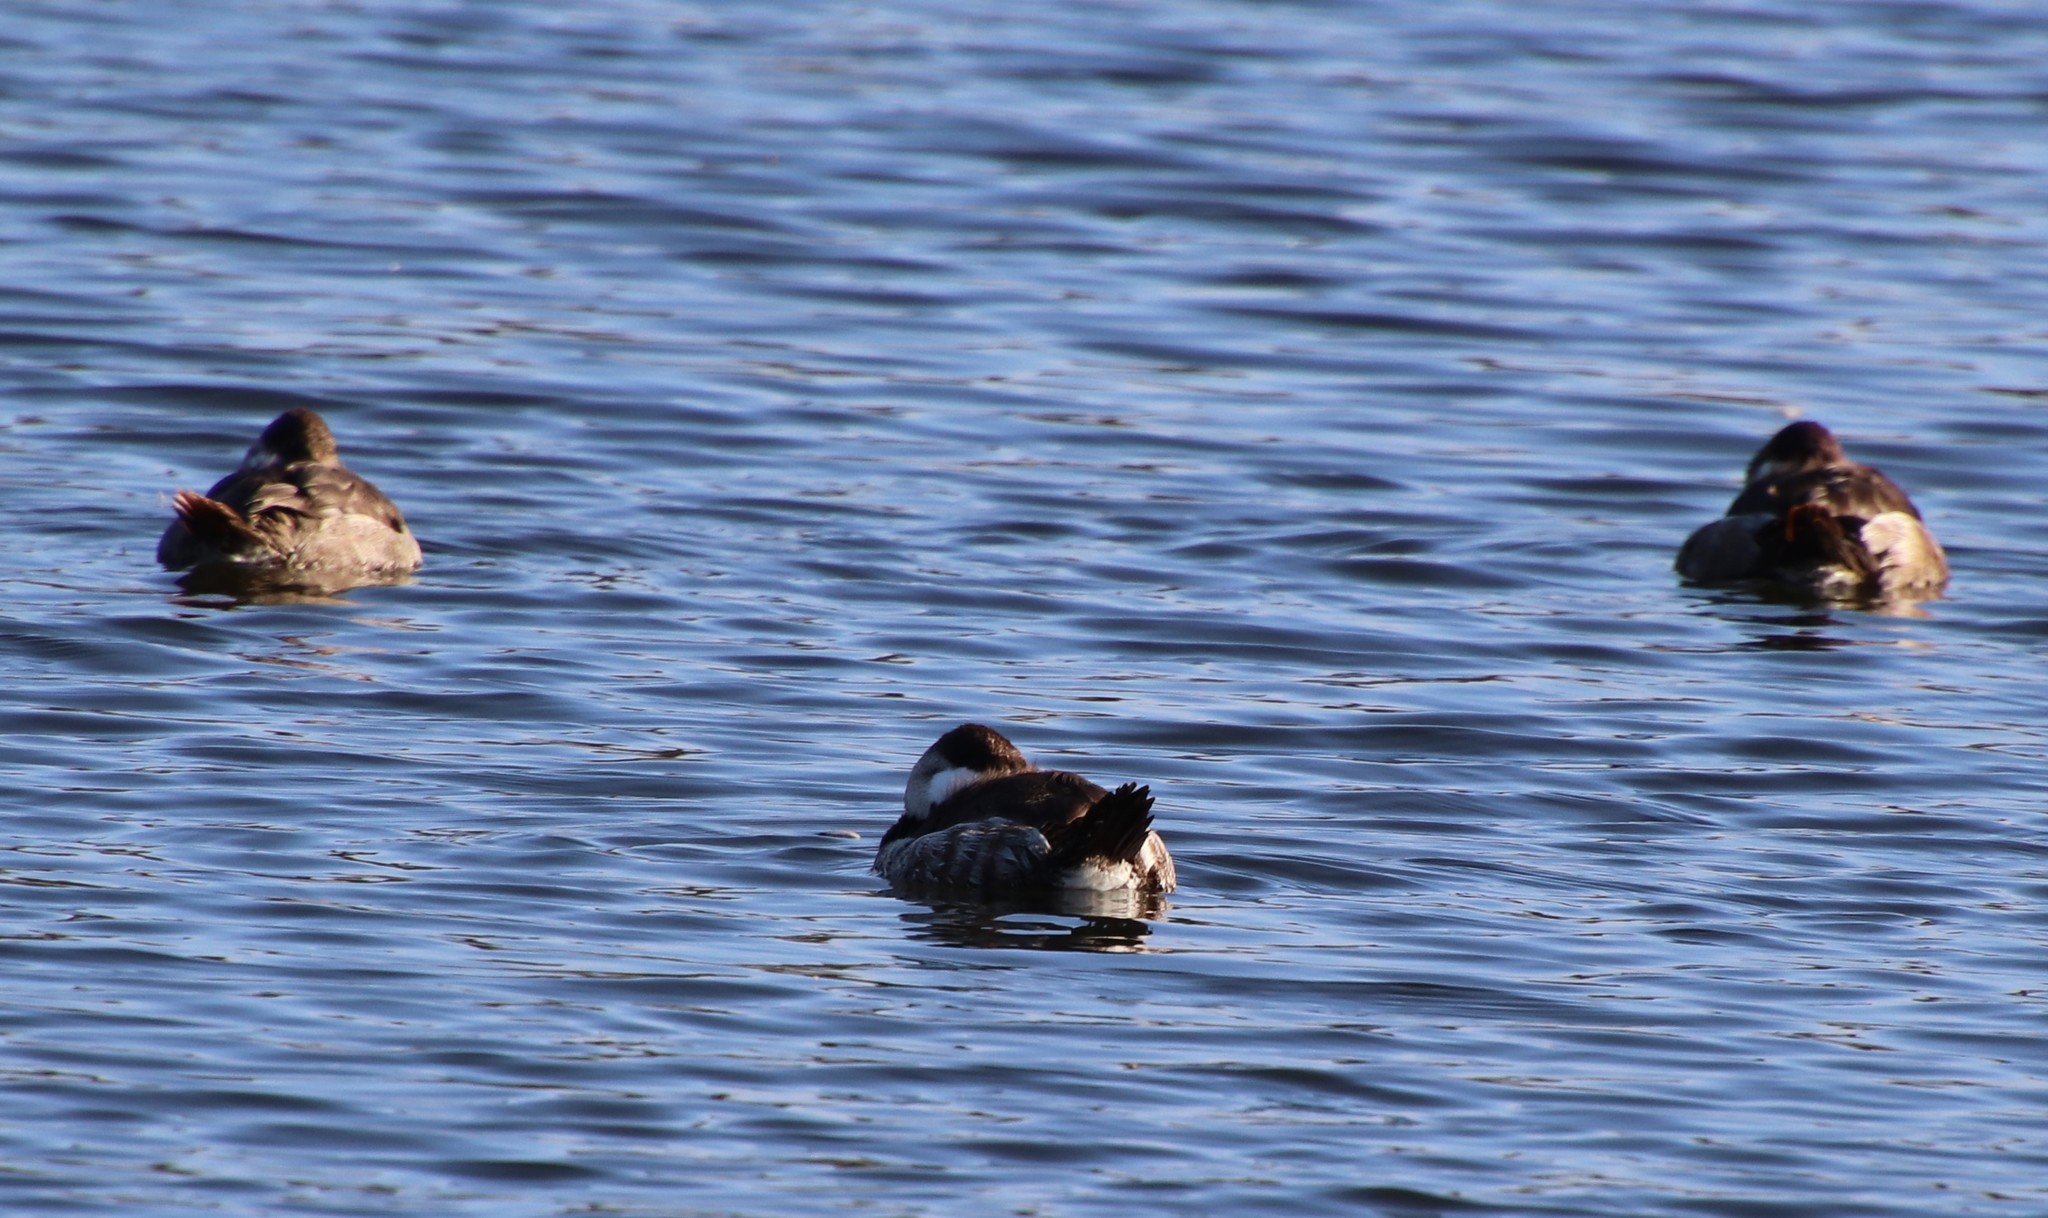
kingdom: Animalia
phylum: Chordata
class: Aves
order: Anseriformes
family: Anatidae
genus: Oxyura
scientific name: Oxyura jamaicensis
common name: Ruddy duck
